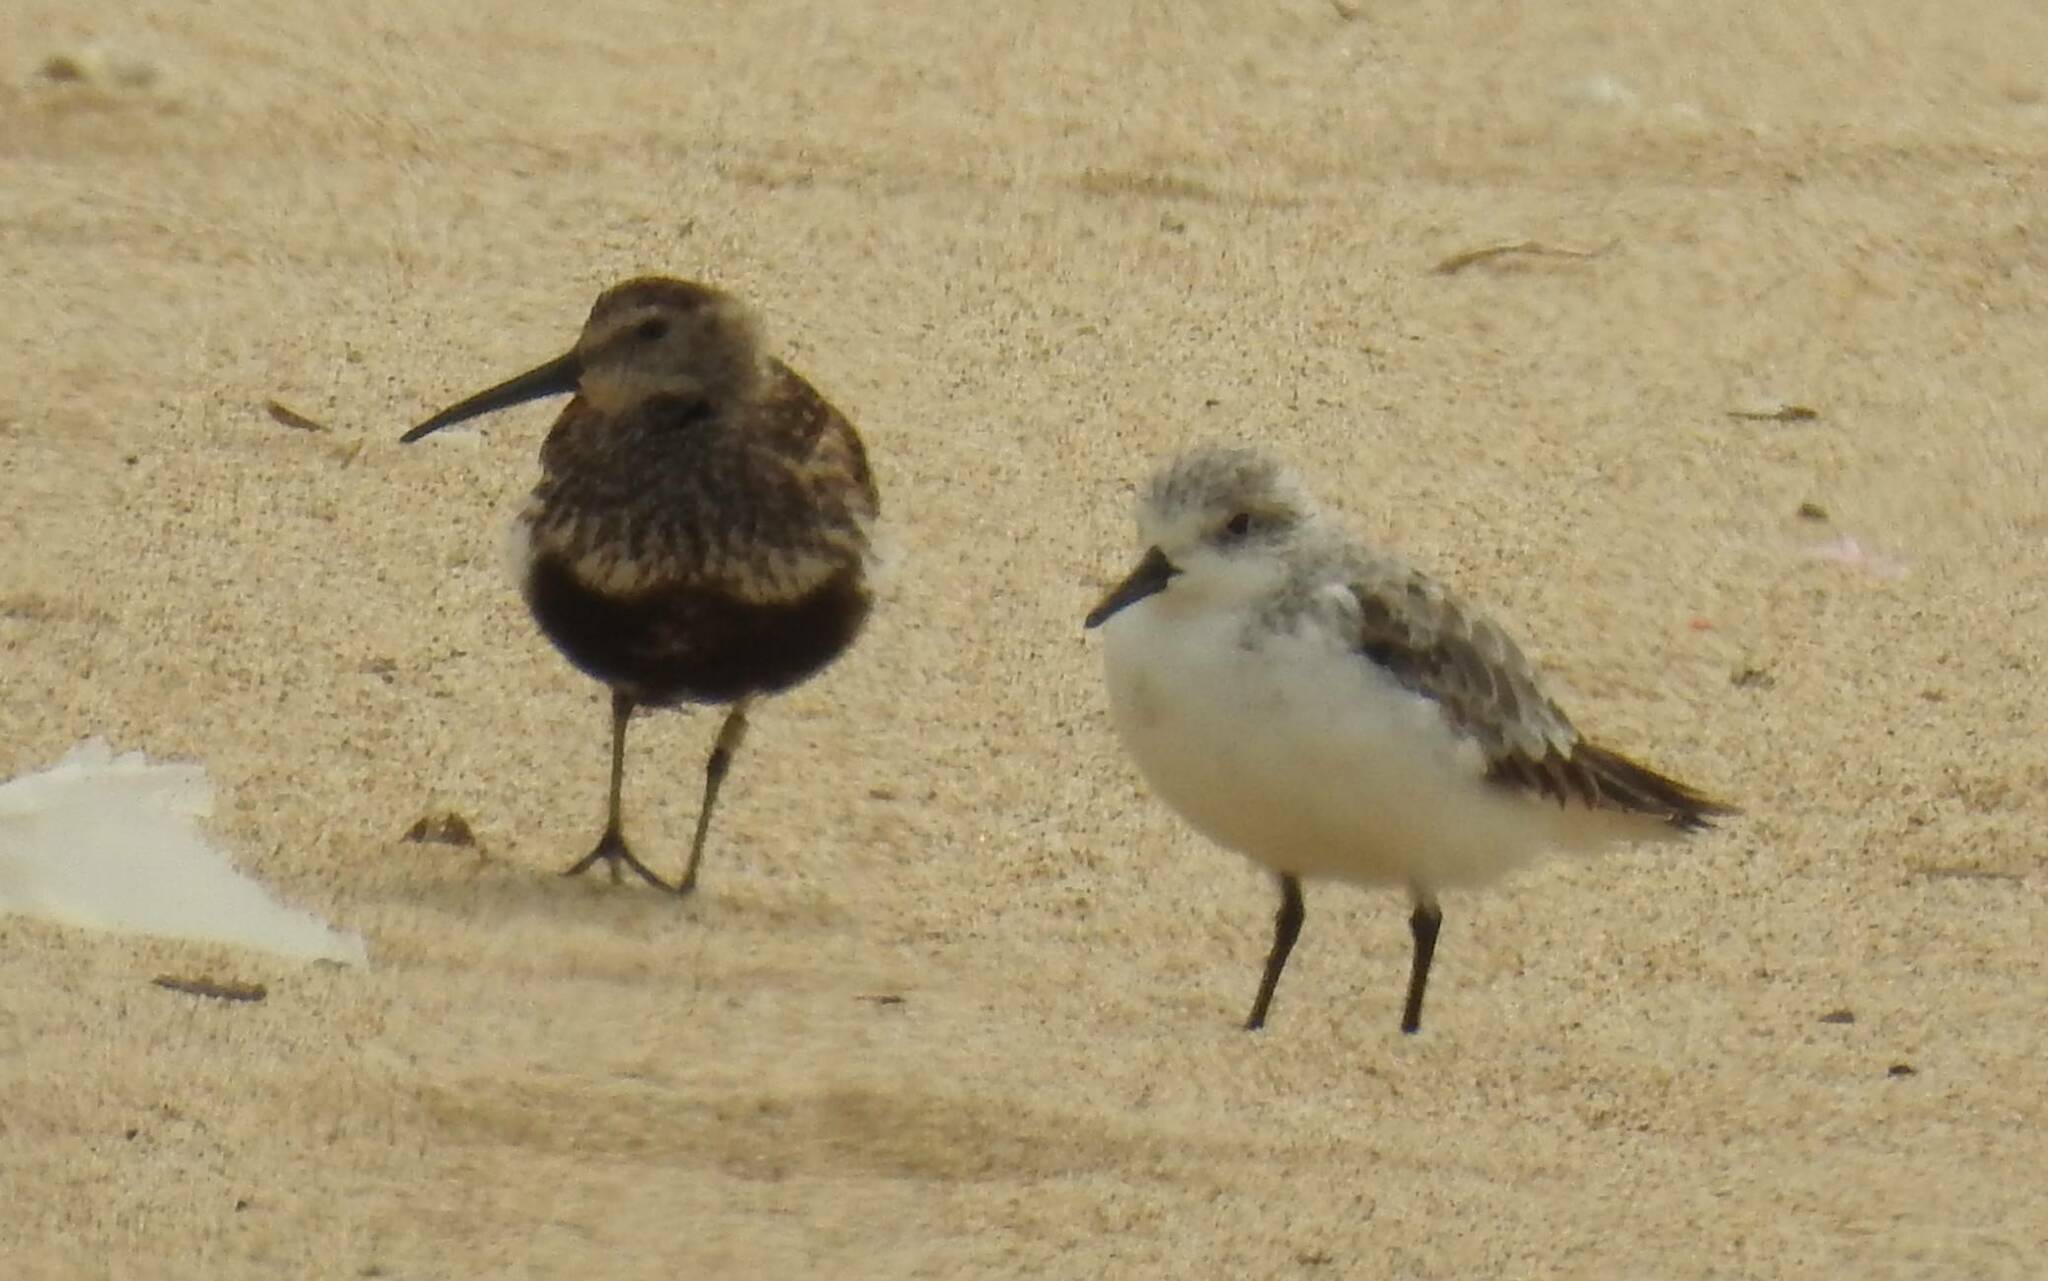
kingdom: Animalia
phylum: Chordata
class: Aves
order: Charadriiformes
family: Scolopacidae
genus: Calidris
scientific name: Calidris alpina
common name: Dunlin
